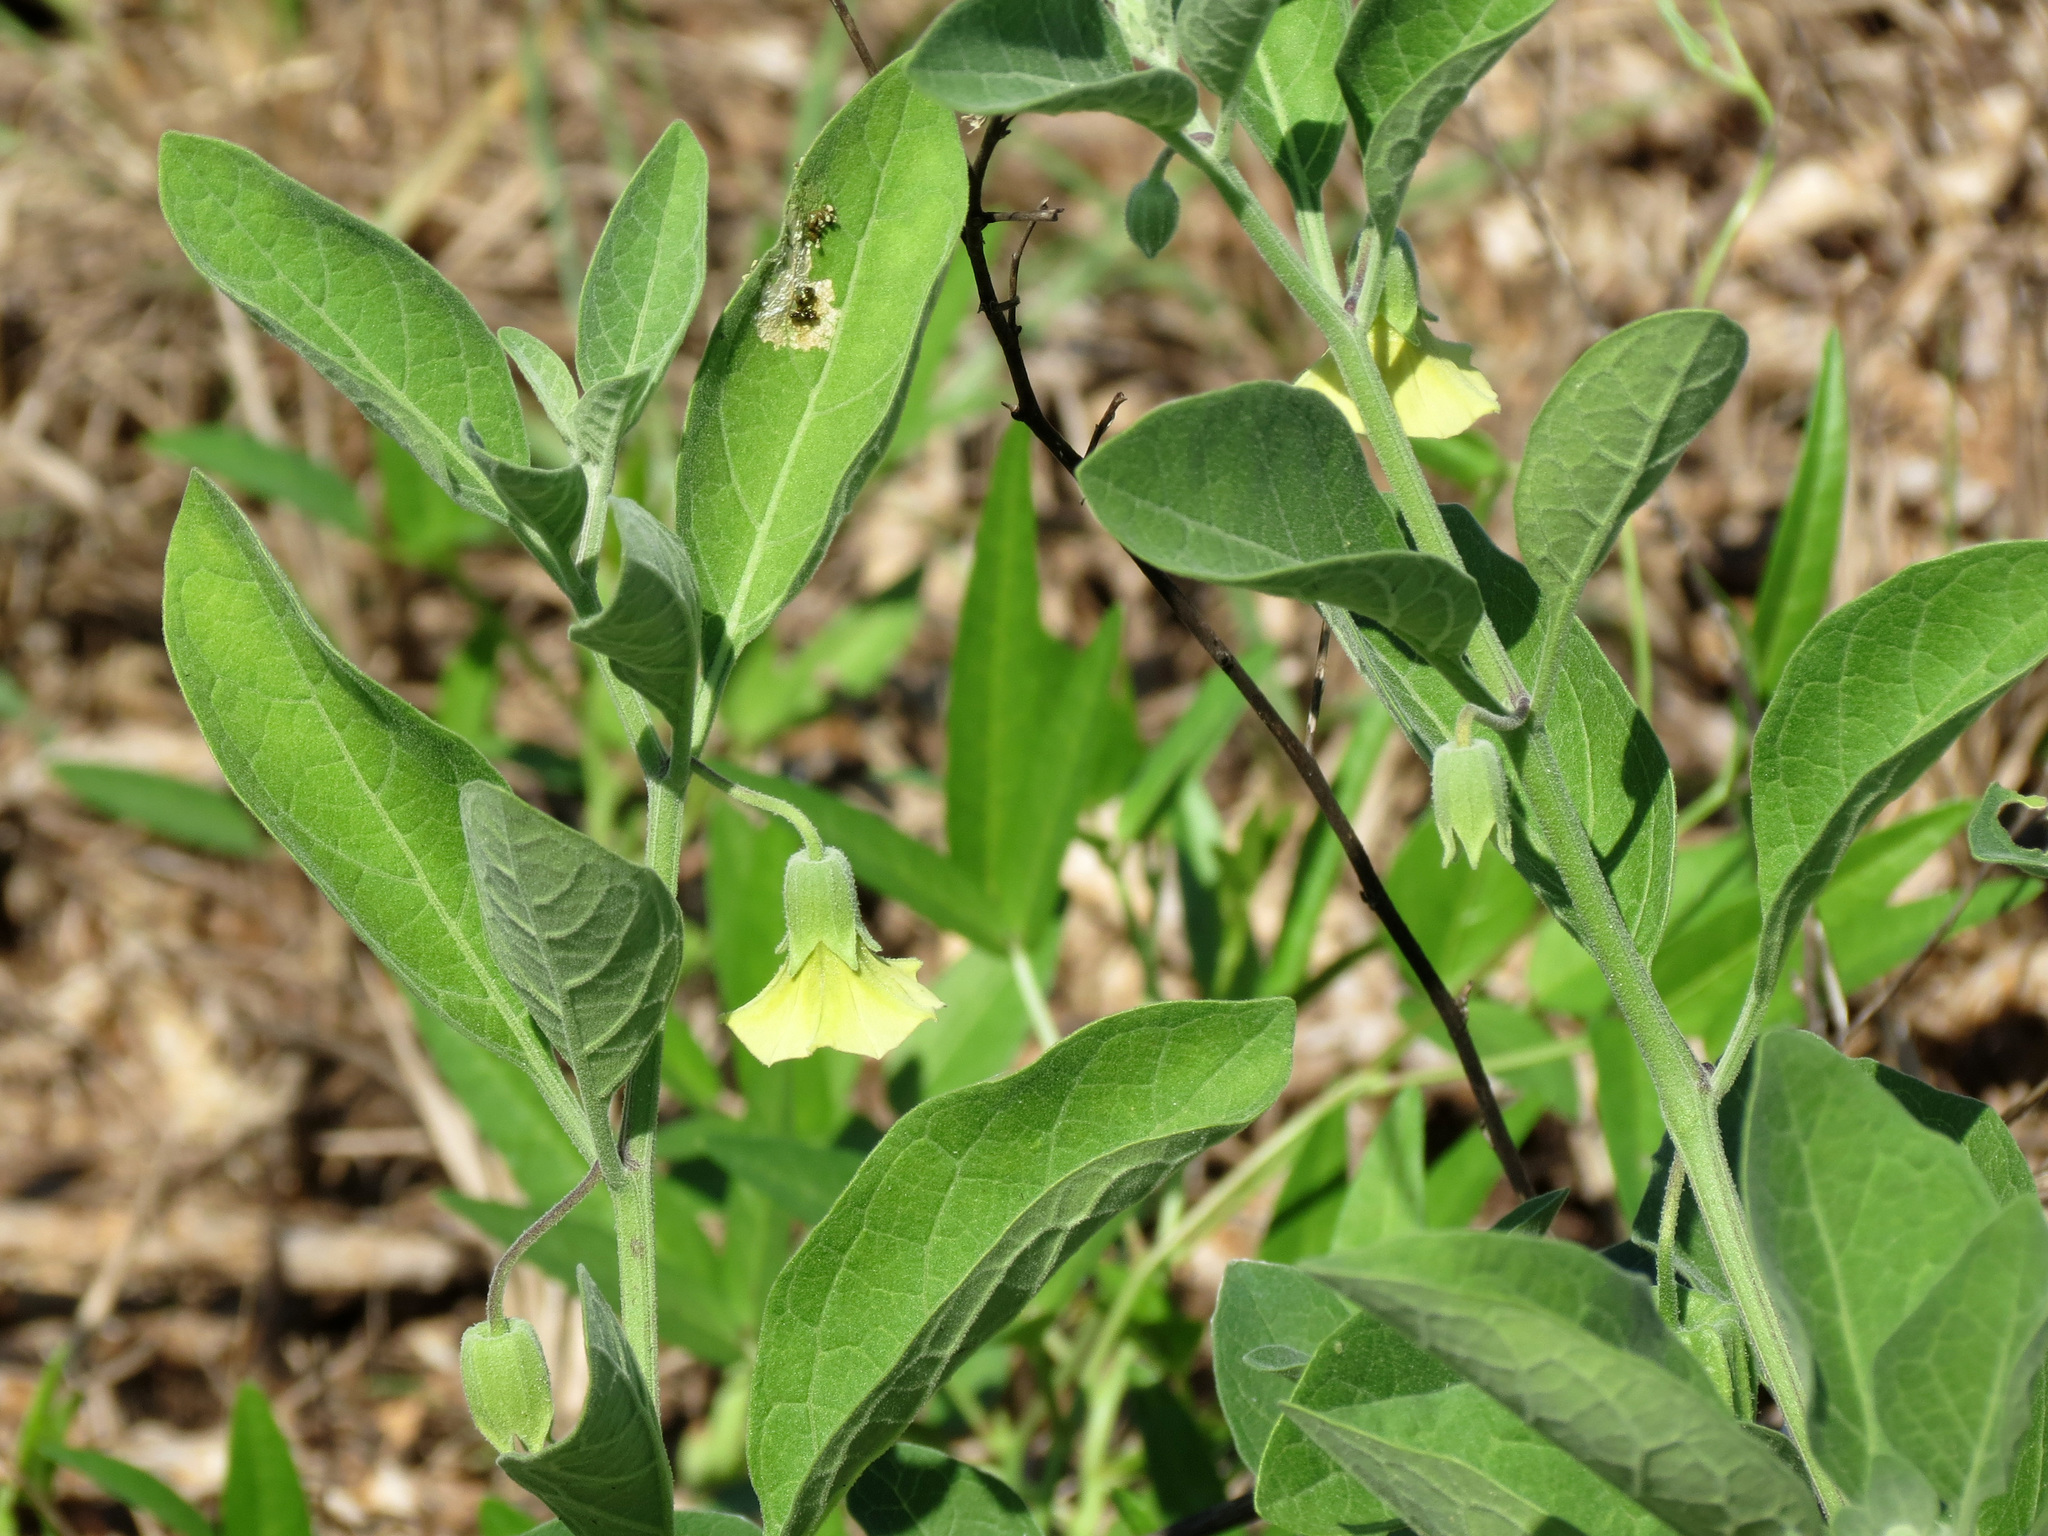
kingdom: Plantae
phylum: Tracheophyta
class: Magnoliopsida
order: Solanales
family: Solanaceae
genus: Physalis
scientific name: Physalis walteri
